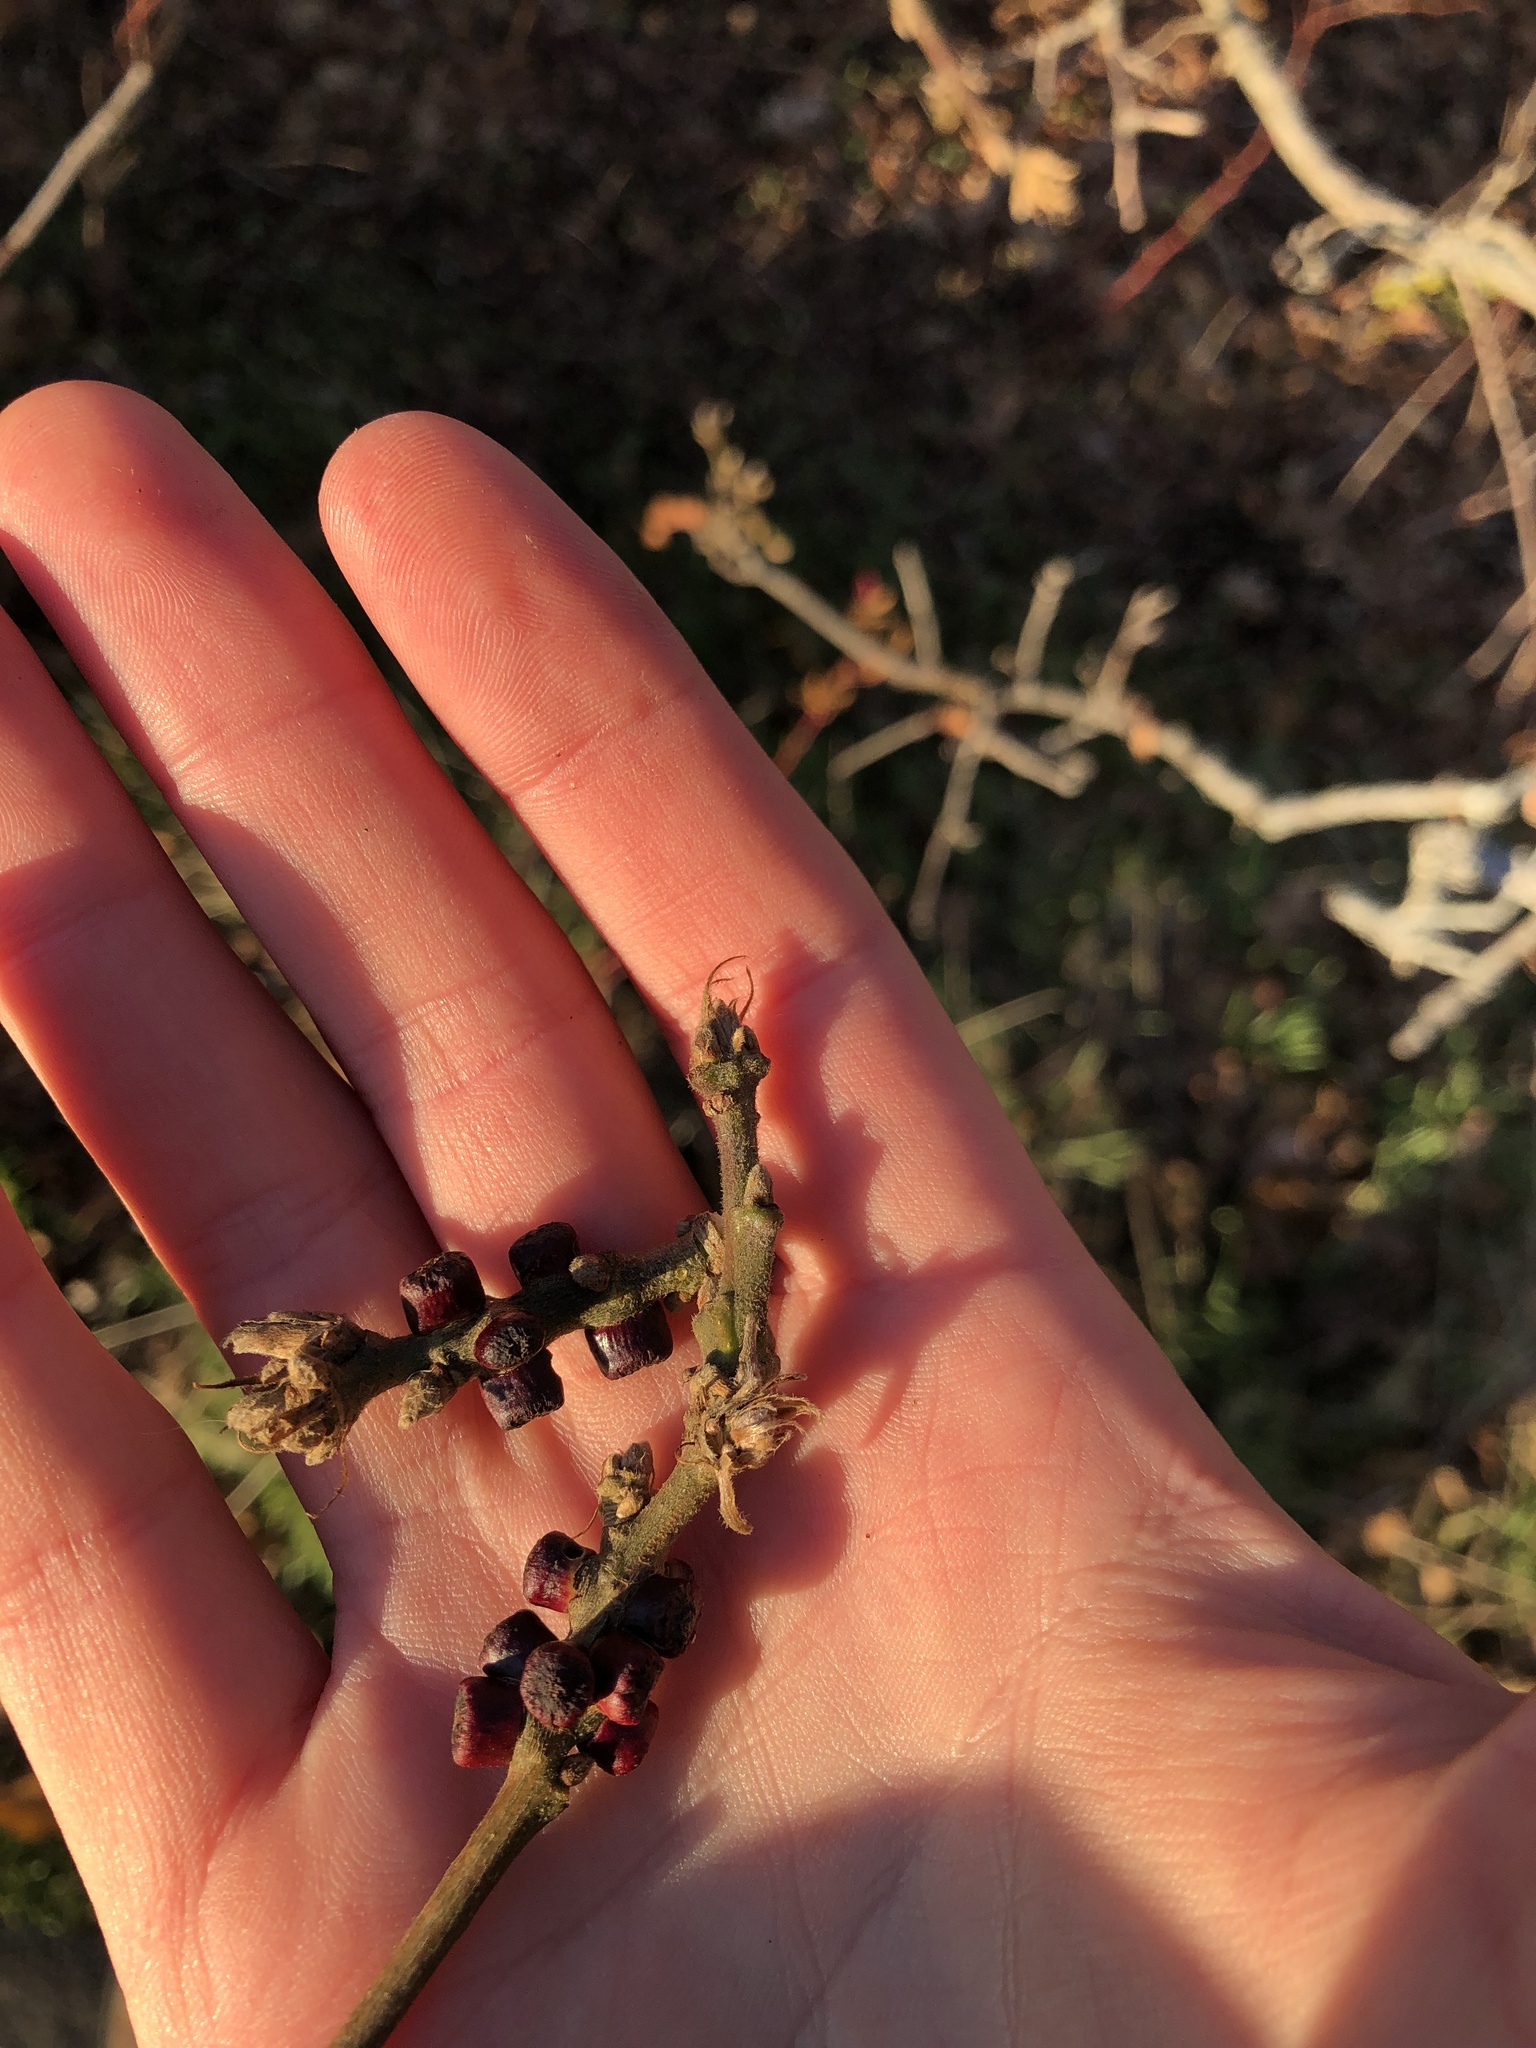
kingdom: Animalia
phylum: Arthropoda
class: Insecta
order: Hymenoptera
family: Cynipidae
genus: Disholcaspis
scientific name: Disholcaspis
